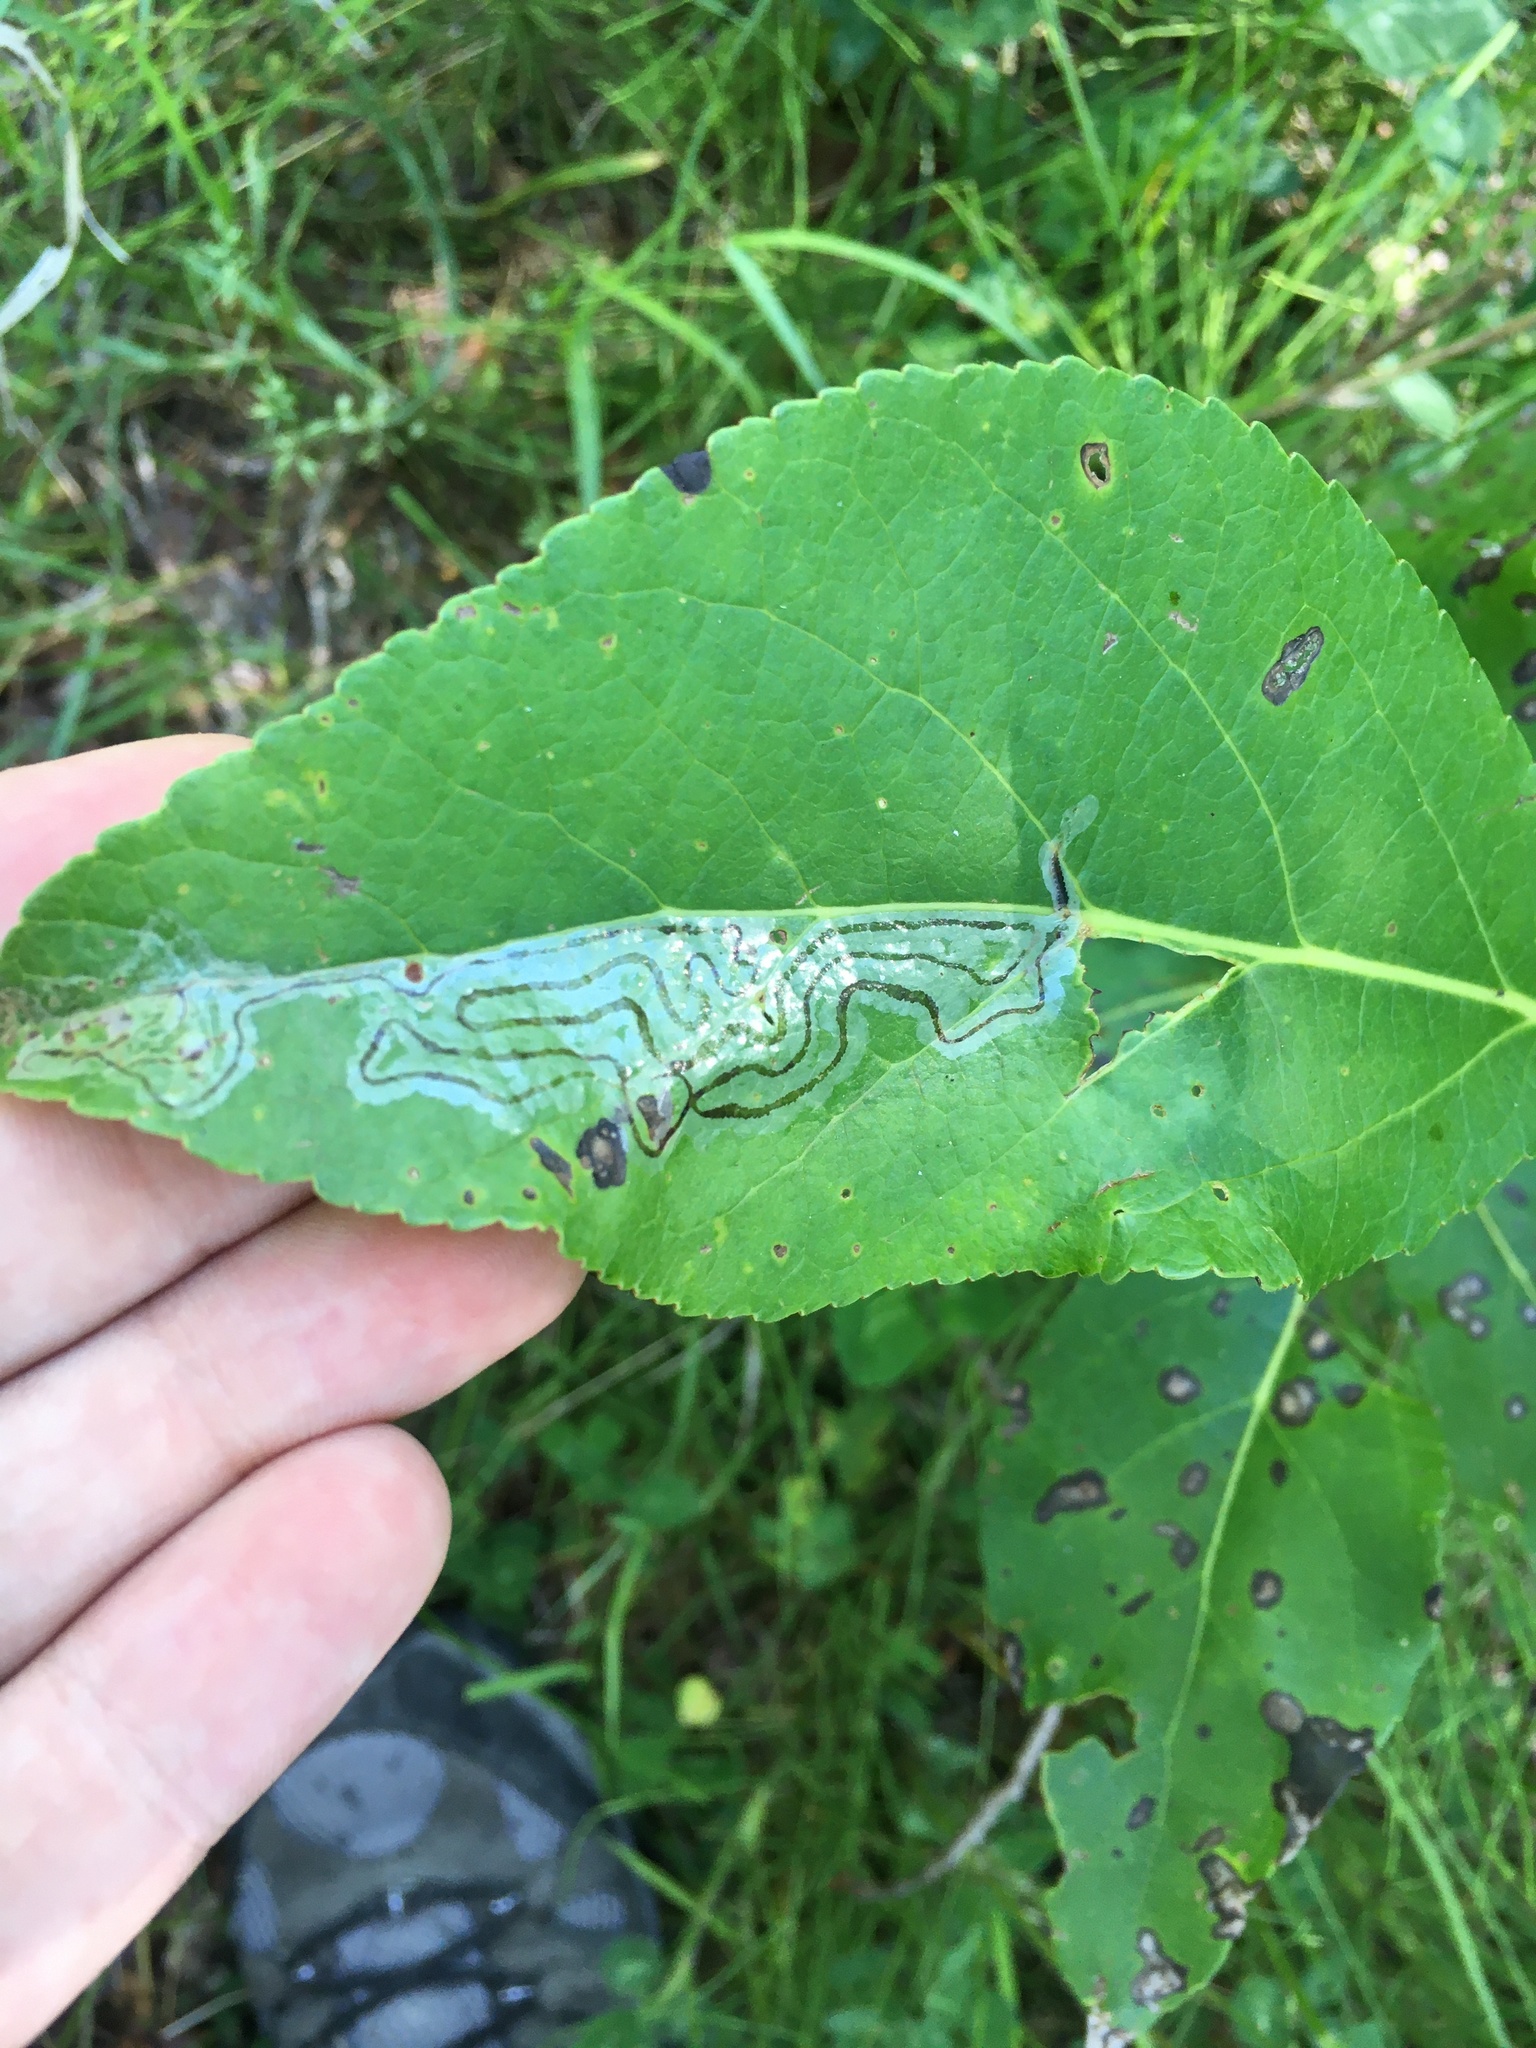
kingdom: Animalia
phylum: Arthropoda
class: Insecta
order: Lepidoptera
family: Gracillariidae
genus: Phyllocnistis
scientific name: Phyllocnistis populiella
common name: Aspen serpentine leafminer moth
